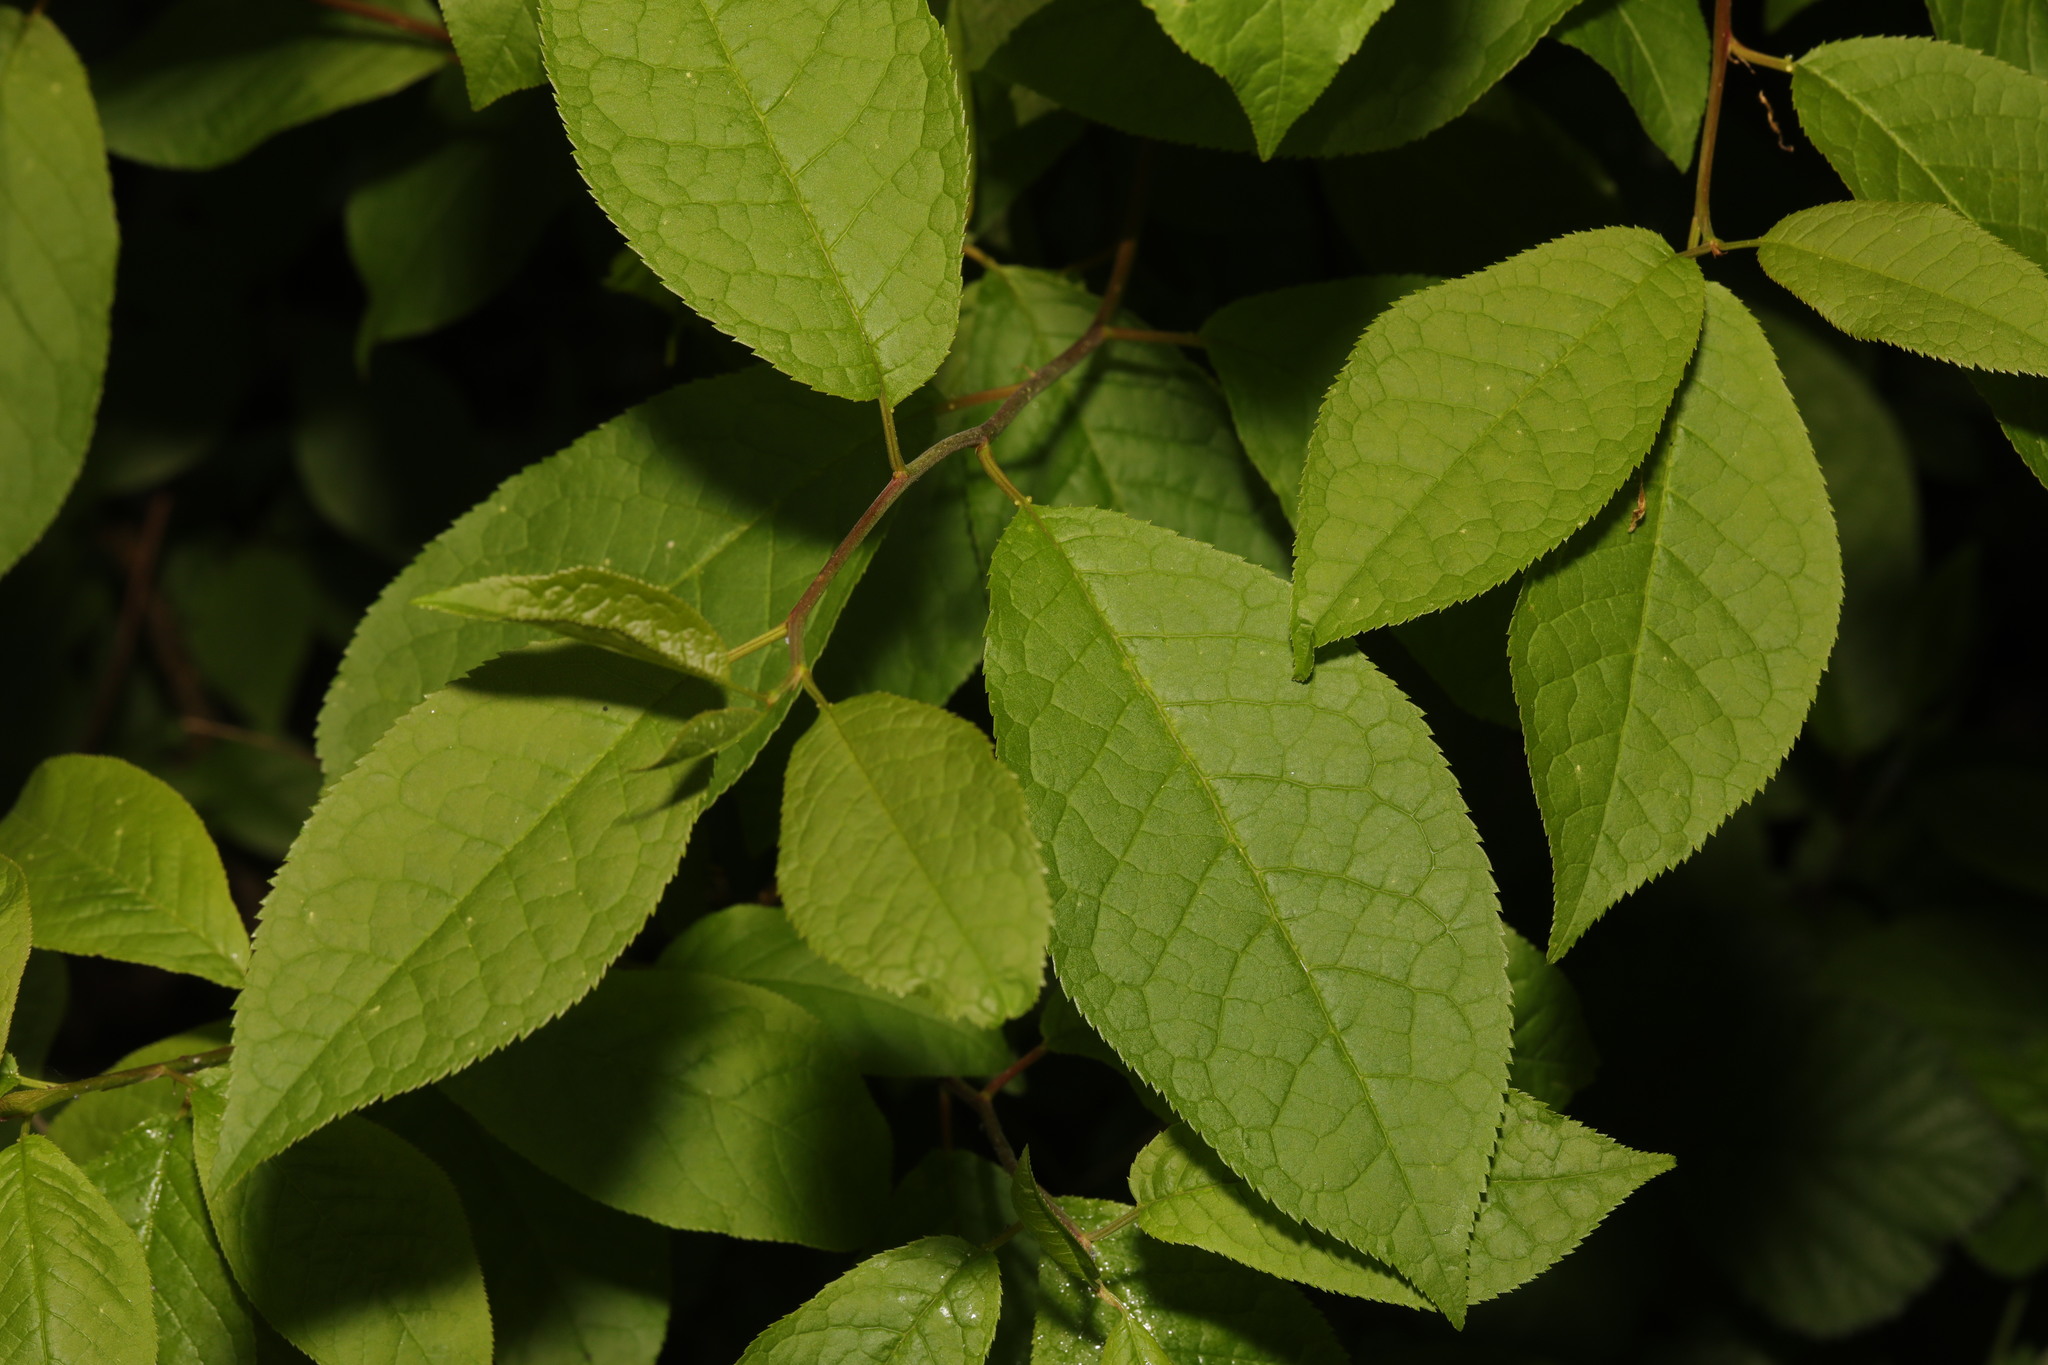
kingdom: Plantae
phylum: Tracheophyta
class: Magnoliopsida
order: Rosales
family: Rosaceae
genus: Prunus
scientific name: Prunus padus
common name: Bird cherry
